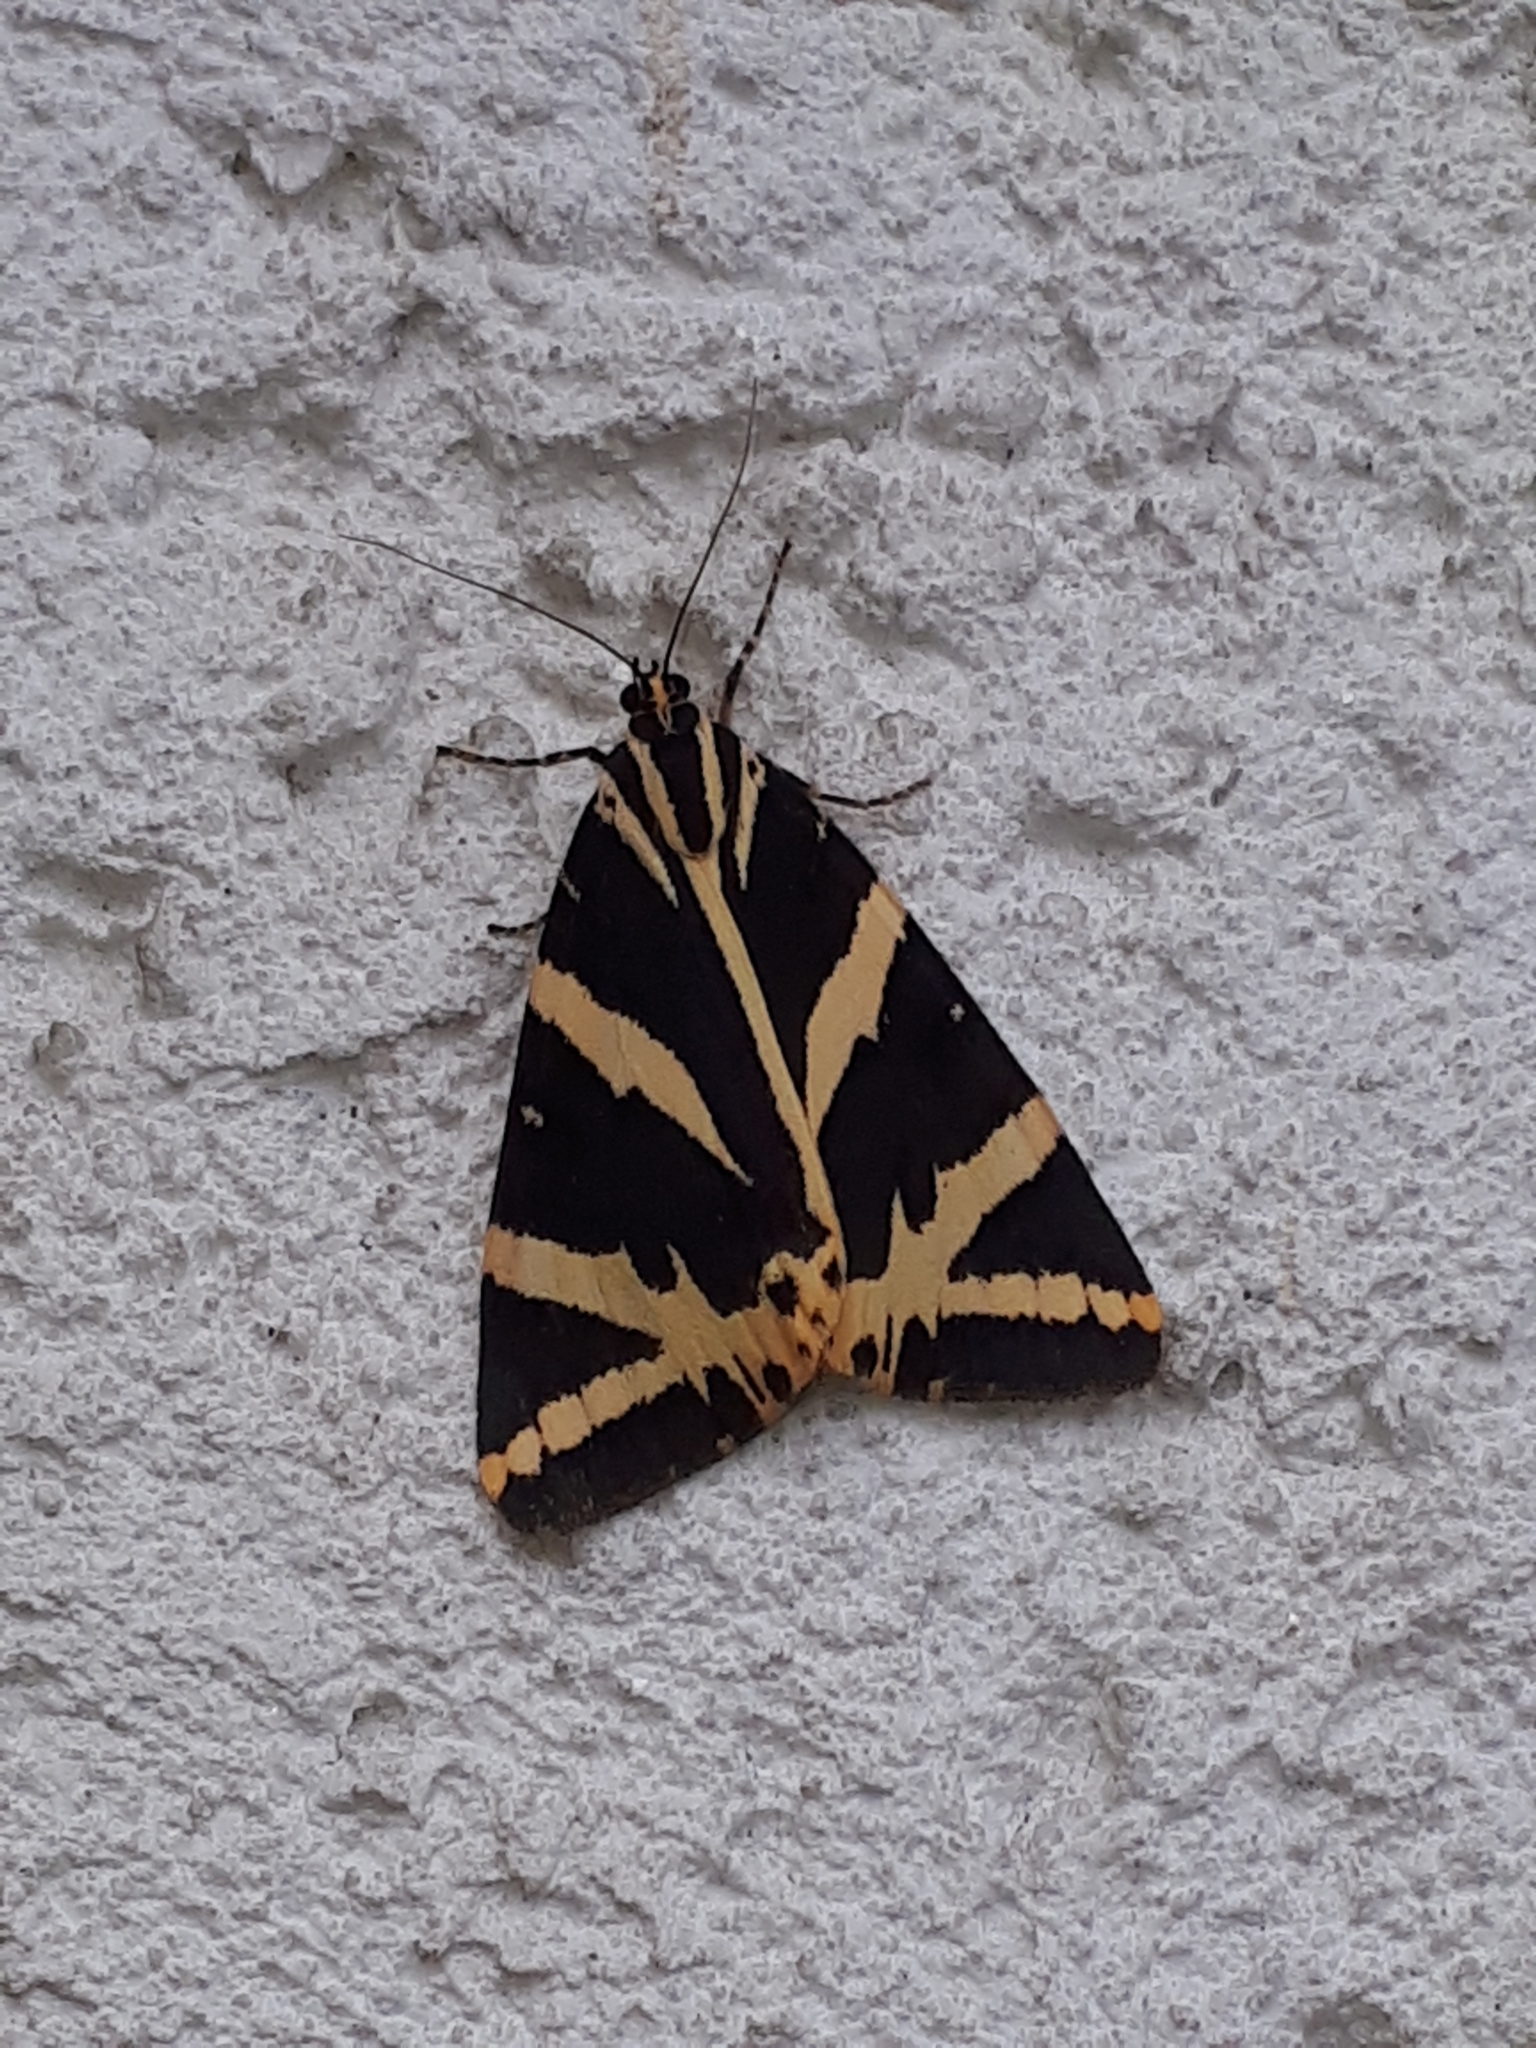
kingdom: Animalia
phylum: Arthropoda
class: Insecta
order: Lepidoptera
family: Erebidae
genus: Euplagia
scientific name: Euplagia quadripunctaria
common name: Jersey tiger
